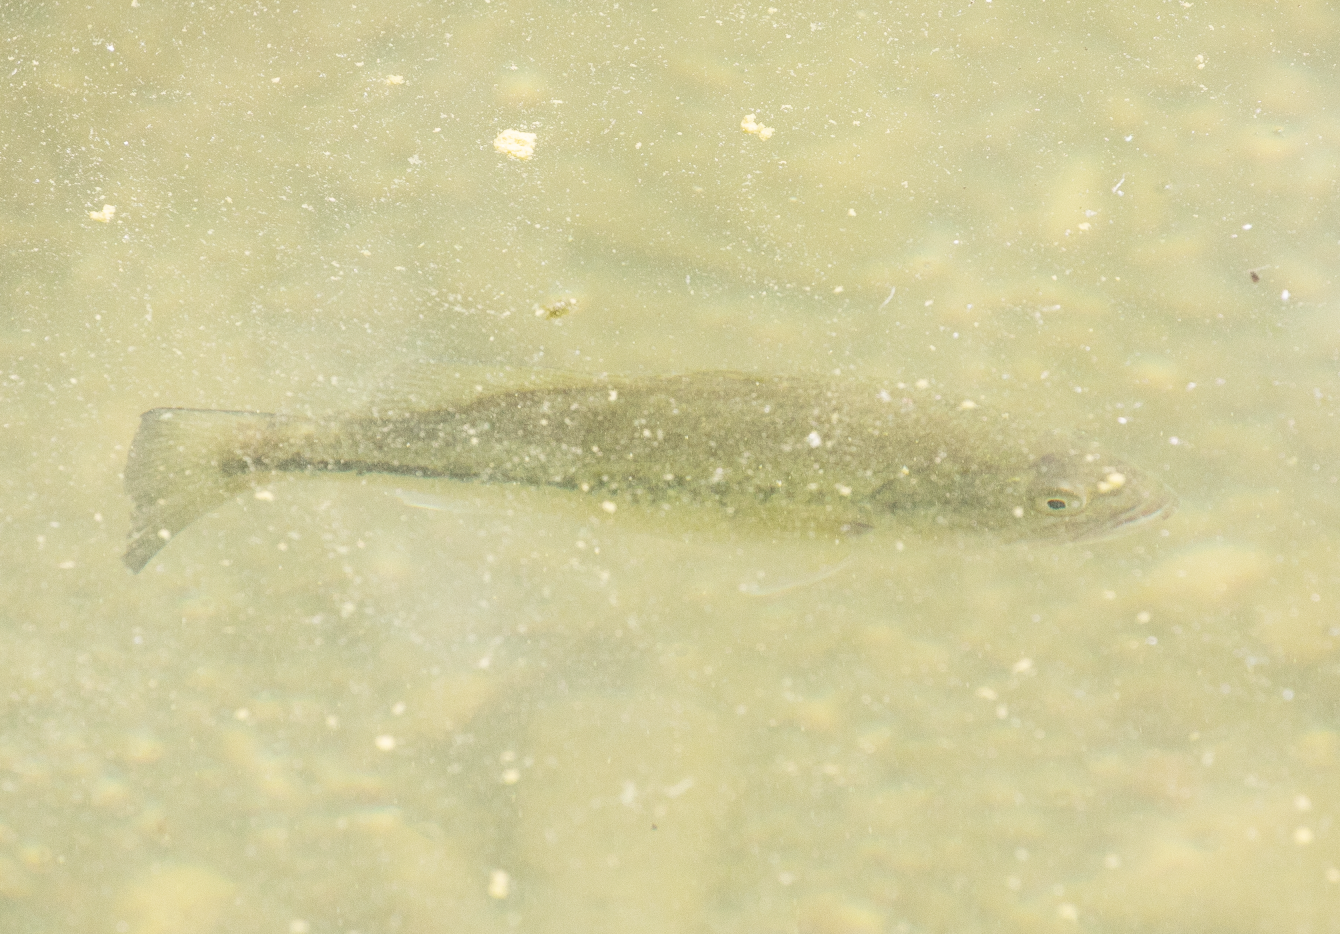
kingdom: Animalia
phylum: Chordata
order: Perciformes
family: Centrarchidae
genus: Micropterus
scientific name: Micropterus
